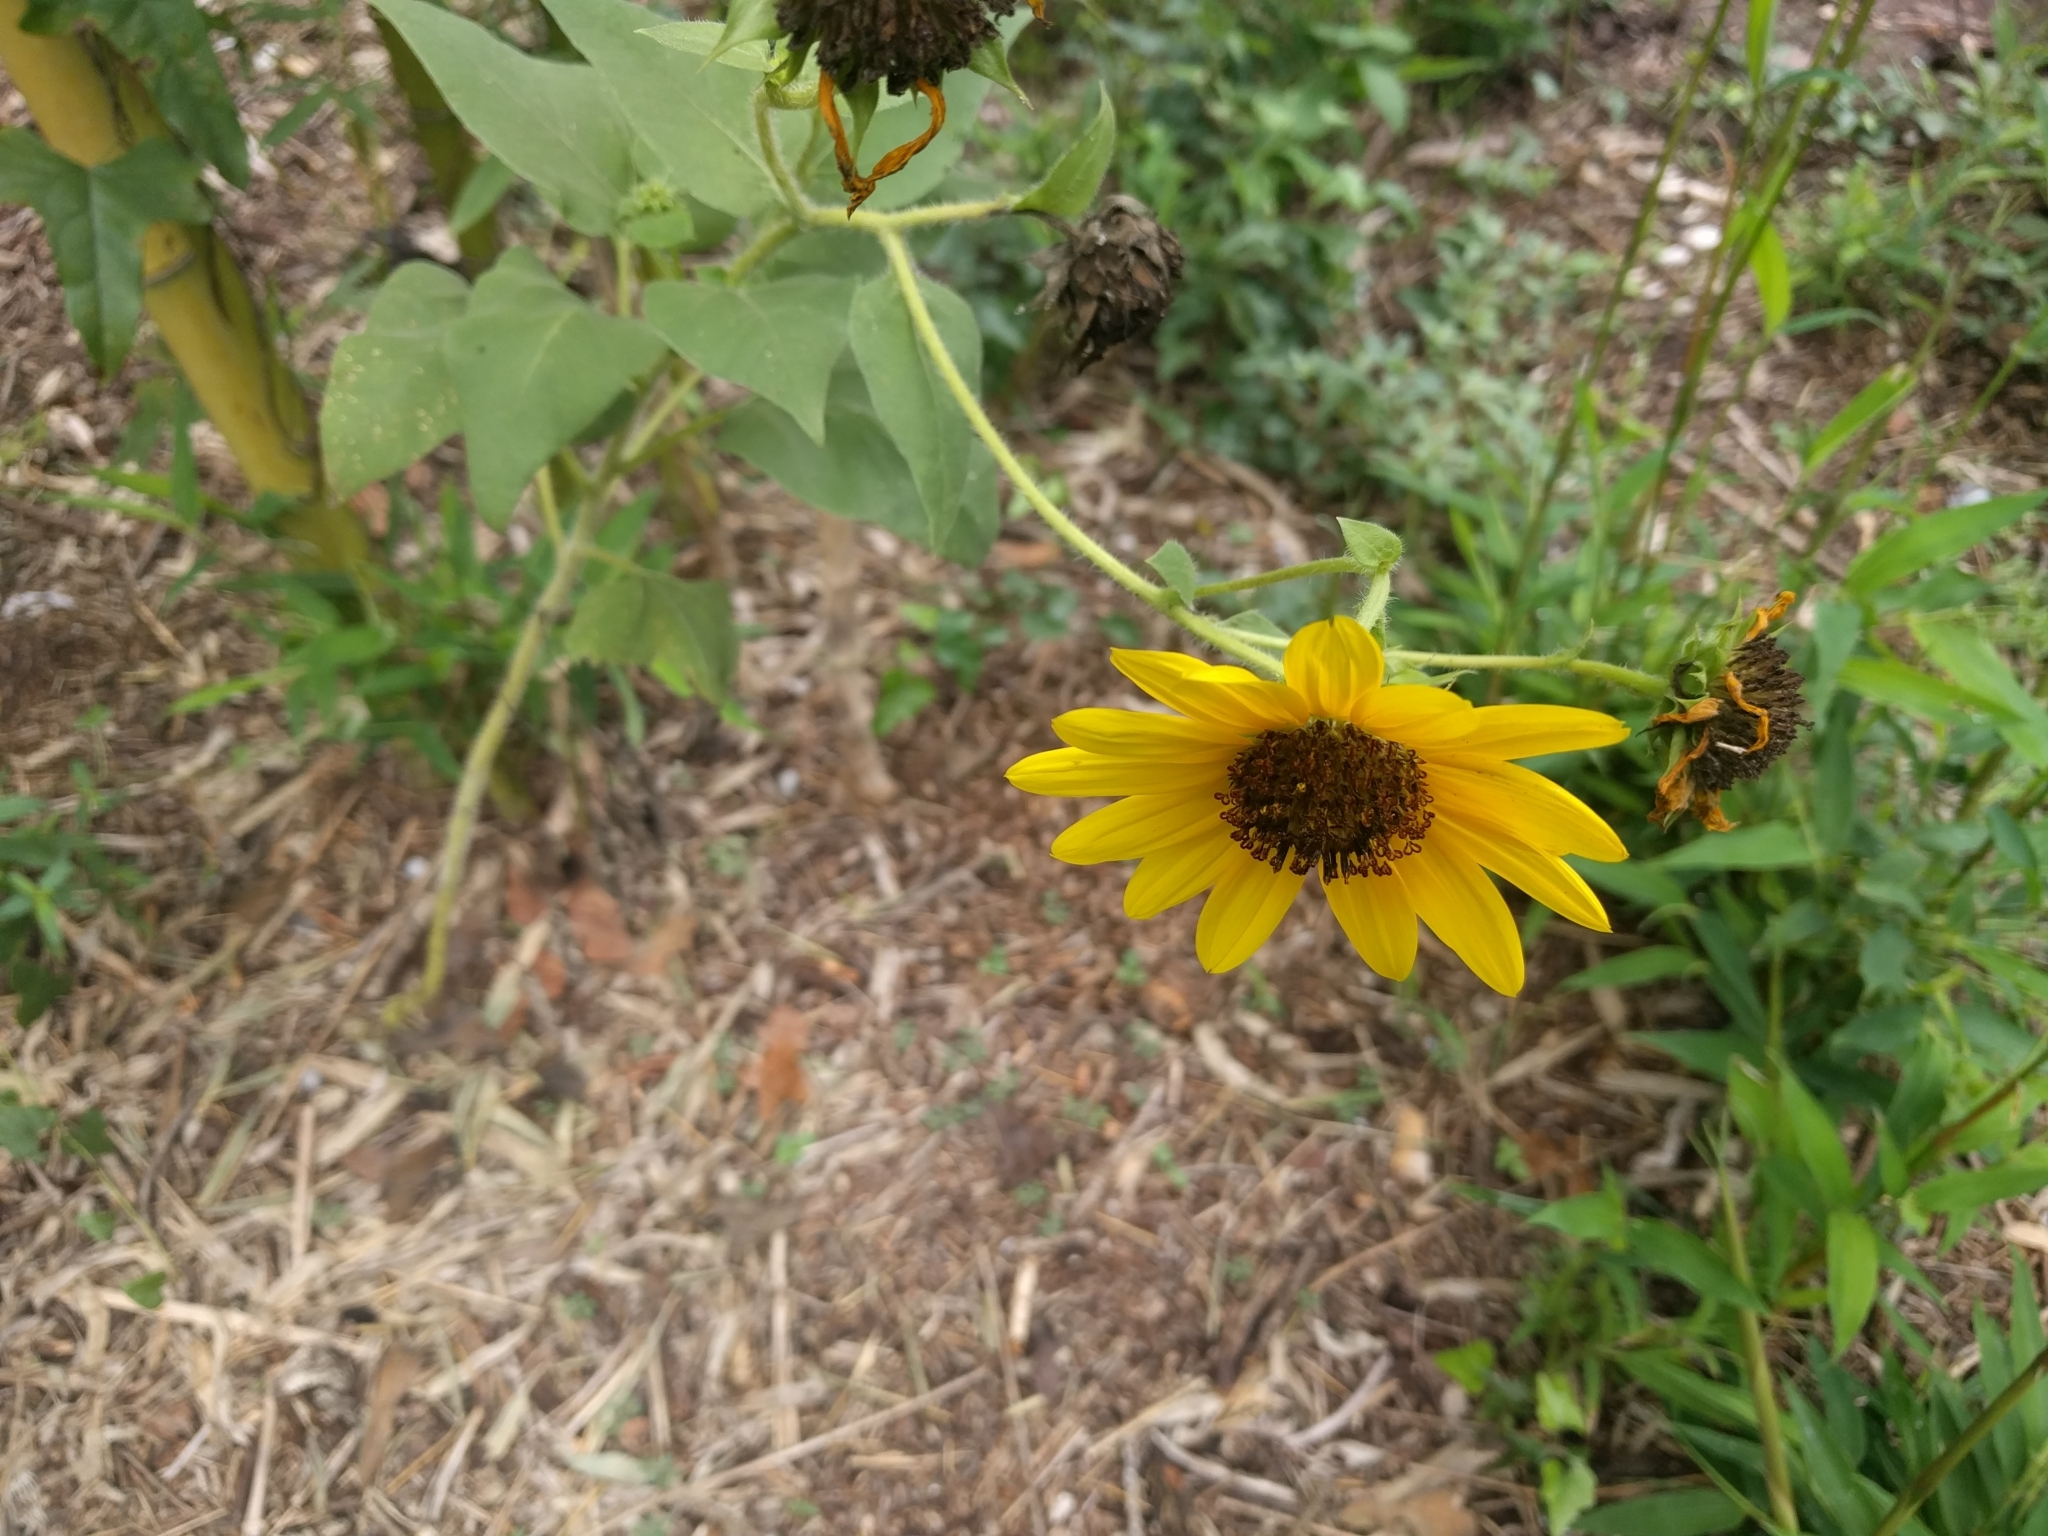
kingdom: Plantae
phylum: Tracheophyta
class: Magnoliopsida
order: Asterales
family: Asteraceae
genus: Helianthus
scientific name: Helianthus annuus
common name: Sunflower
